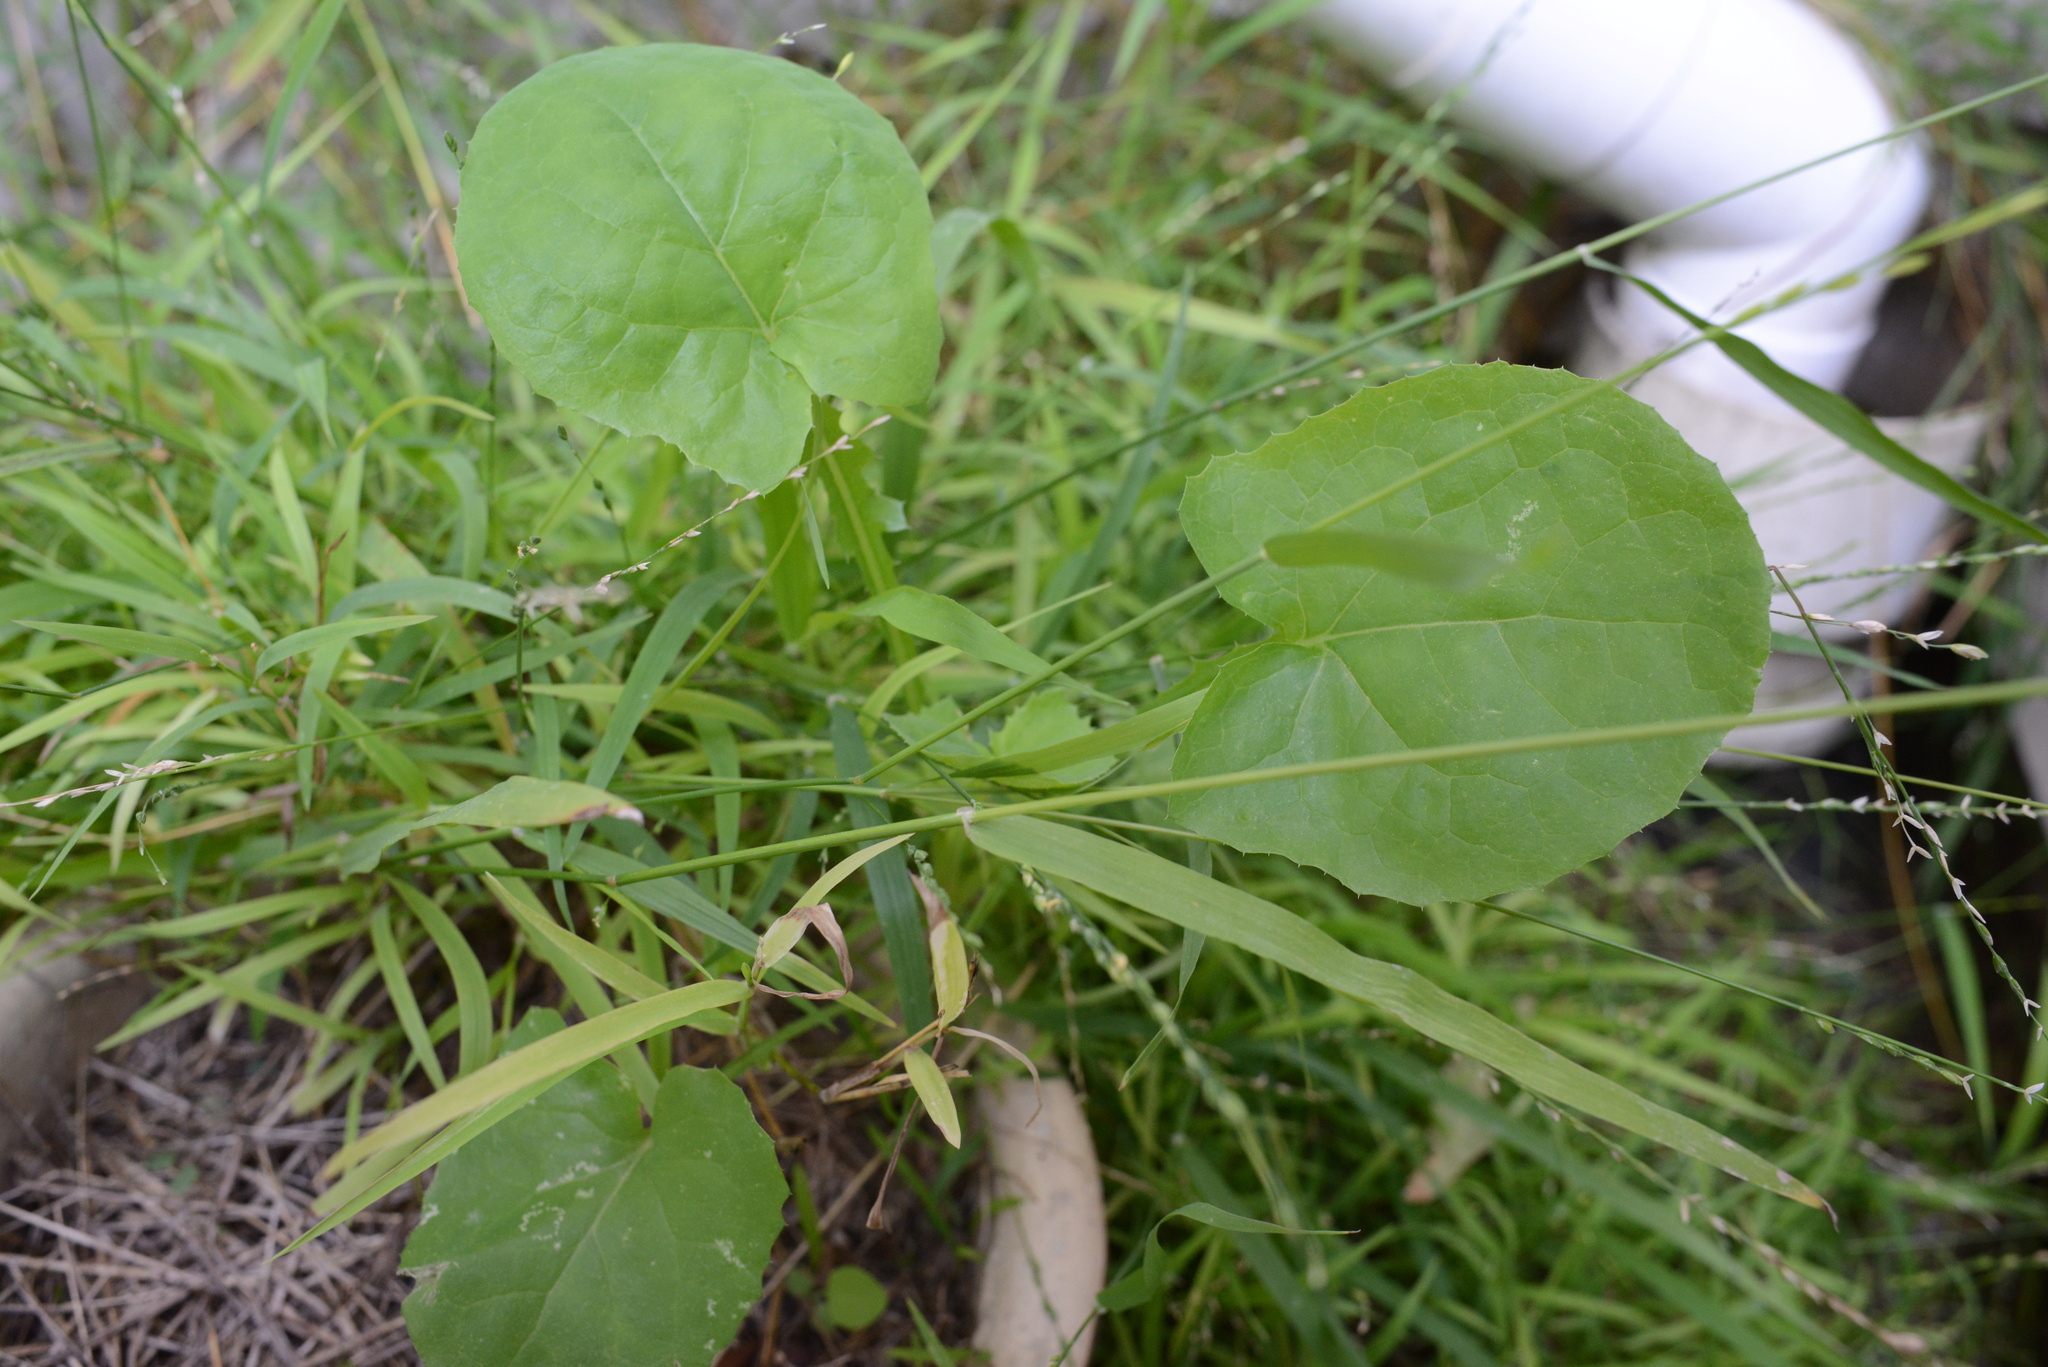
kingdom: Plantae
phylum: Tracheophyta
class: Magnoliopsida
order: Asterales
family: Asteraceae
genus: Sonchus
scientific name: Sonchus oleraceus
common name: Common sowthistle
